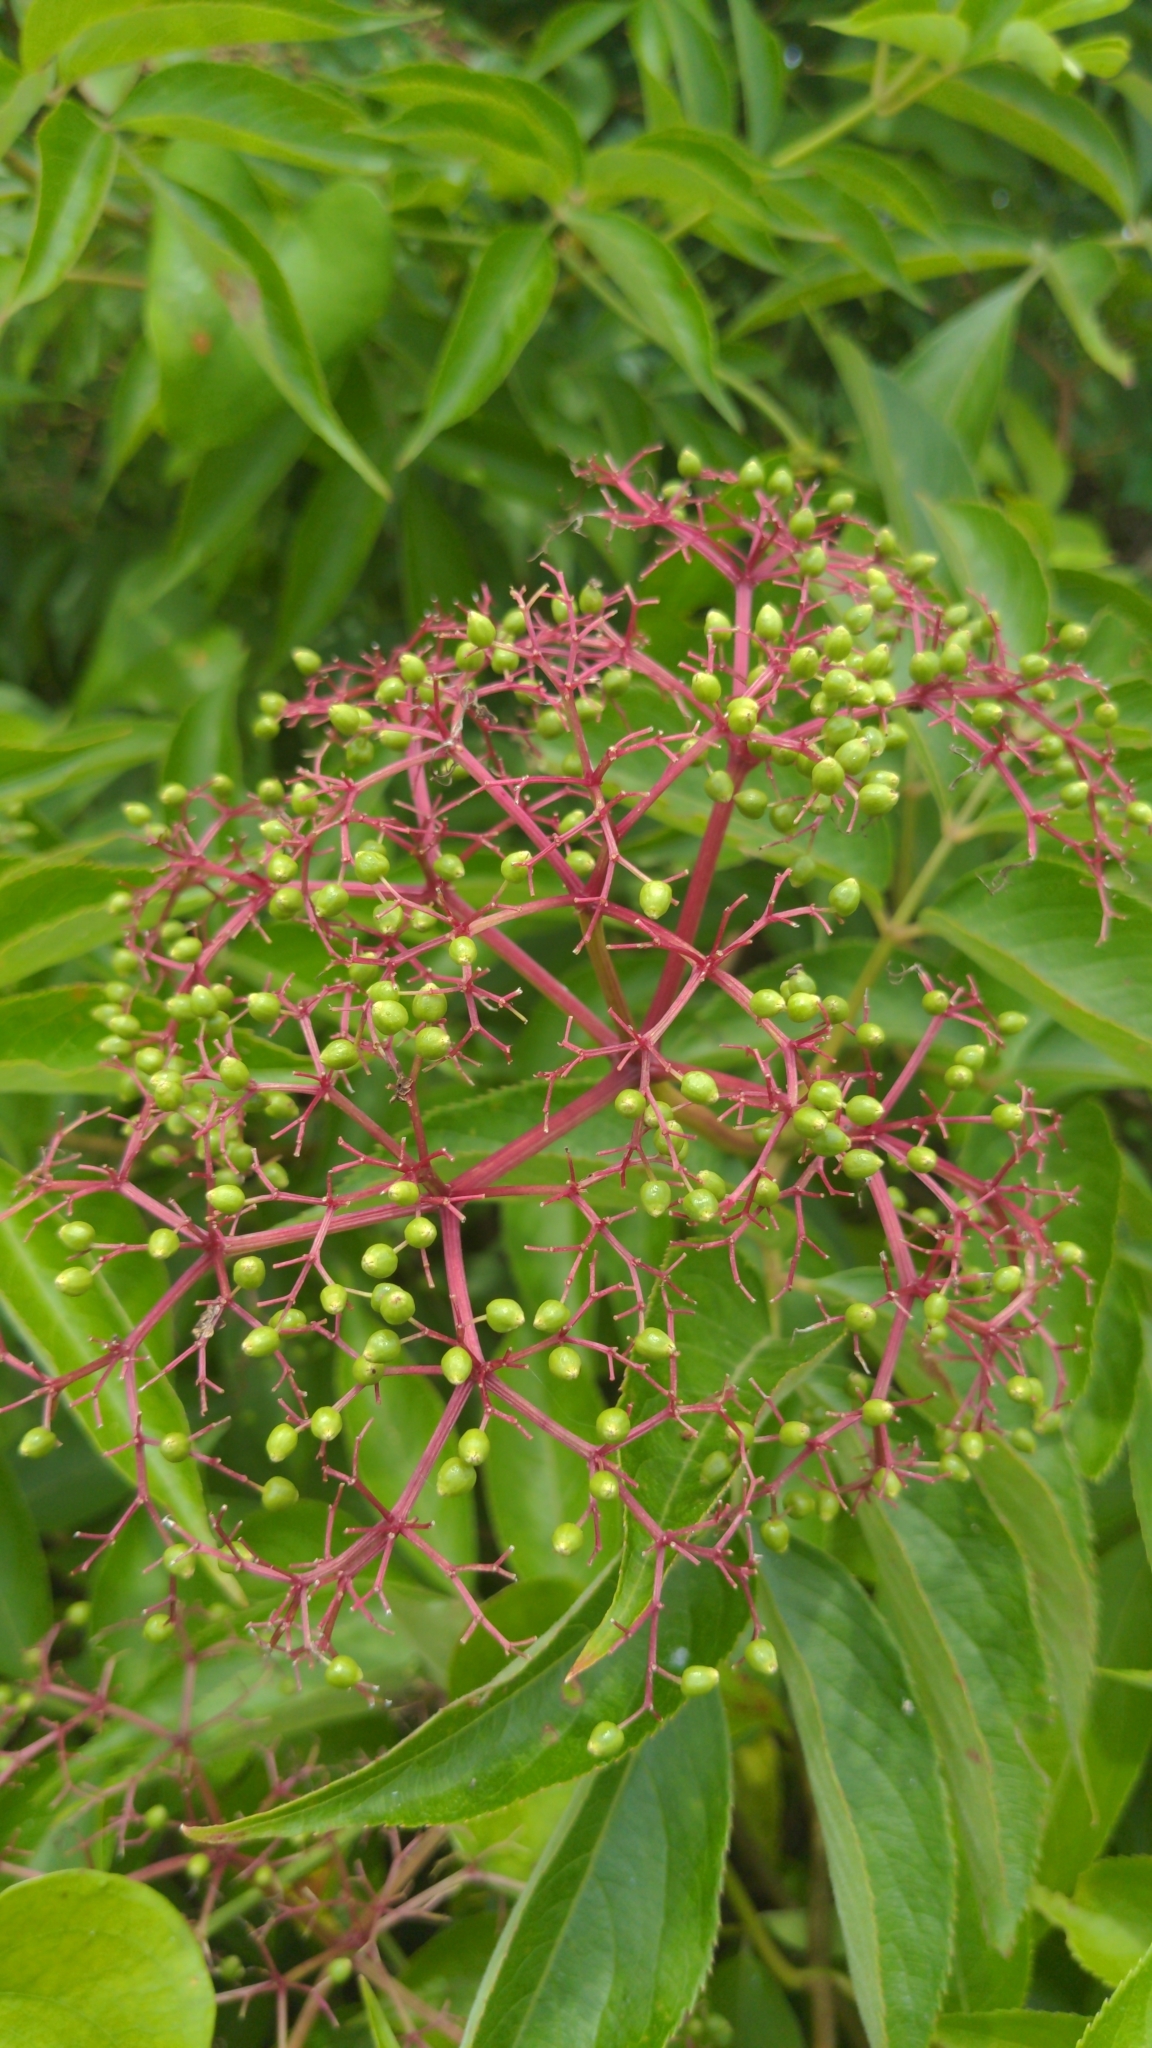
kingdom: Plantae
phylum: Tracheophyta
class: Magnoliopsida
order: Dipsacales
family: Viburnaceae
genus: Sambucus
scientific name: Sambucus canadensis
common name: American elder
